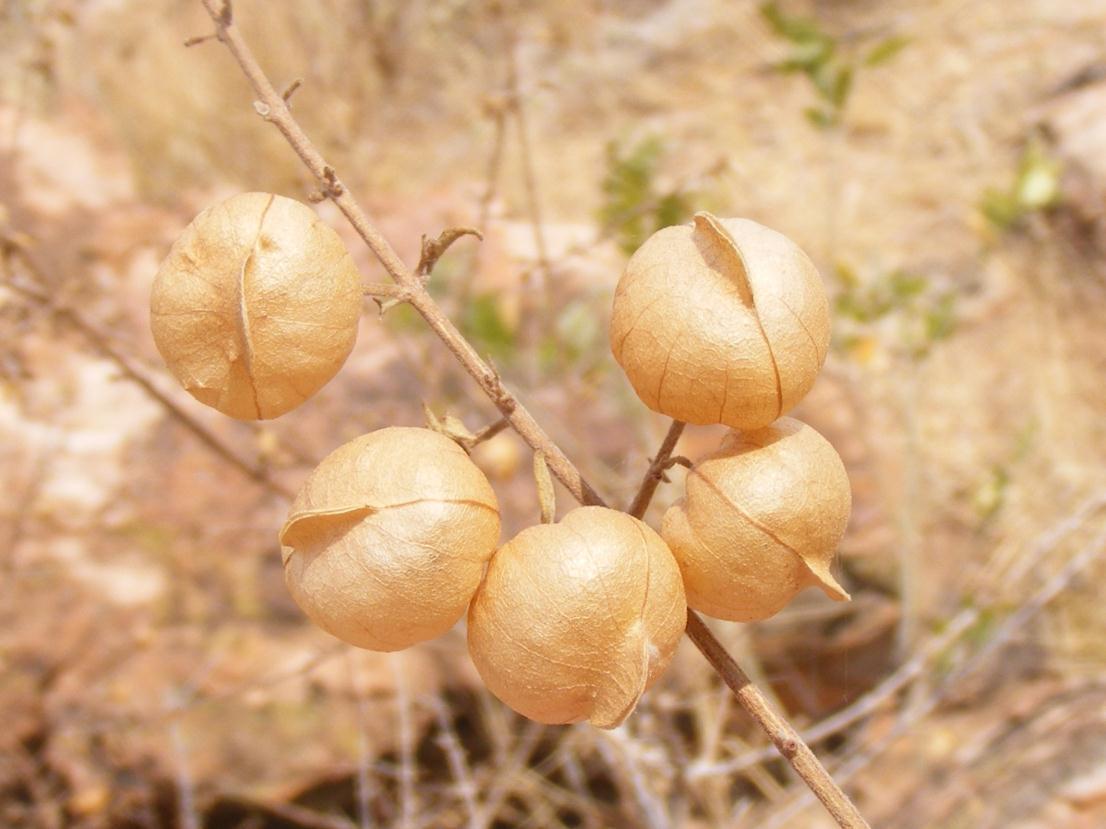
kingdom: Plantae
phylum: Tracheophyta
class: Magnoliopsida
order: Lamiales
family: Lamiaceae
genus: Tinnea
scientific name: Tinnea rhodesiana
